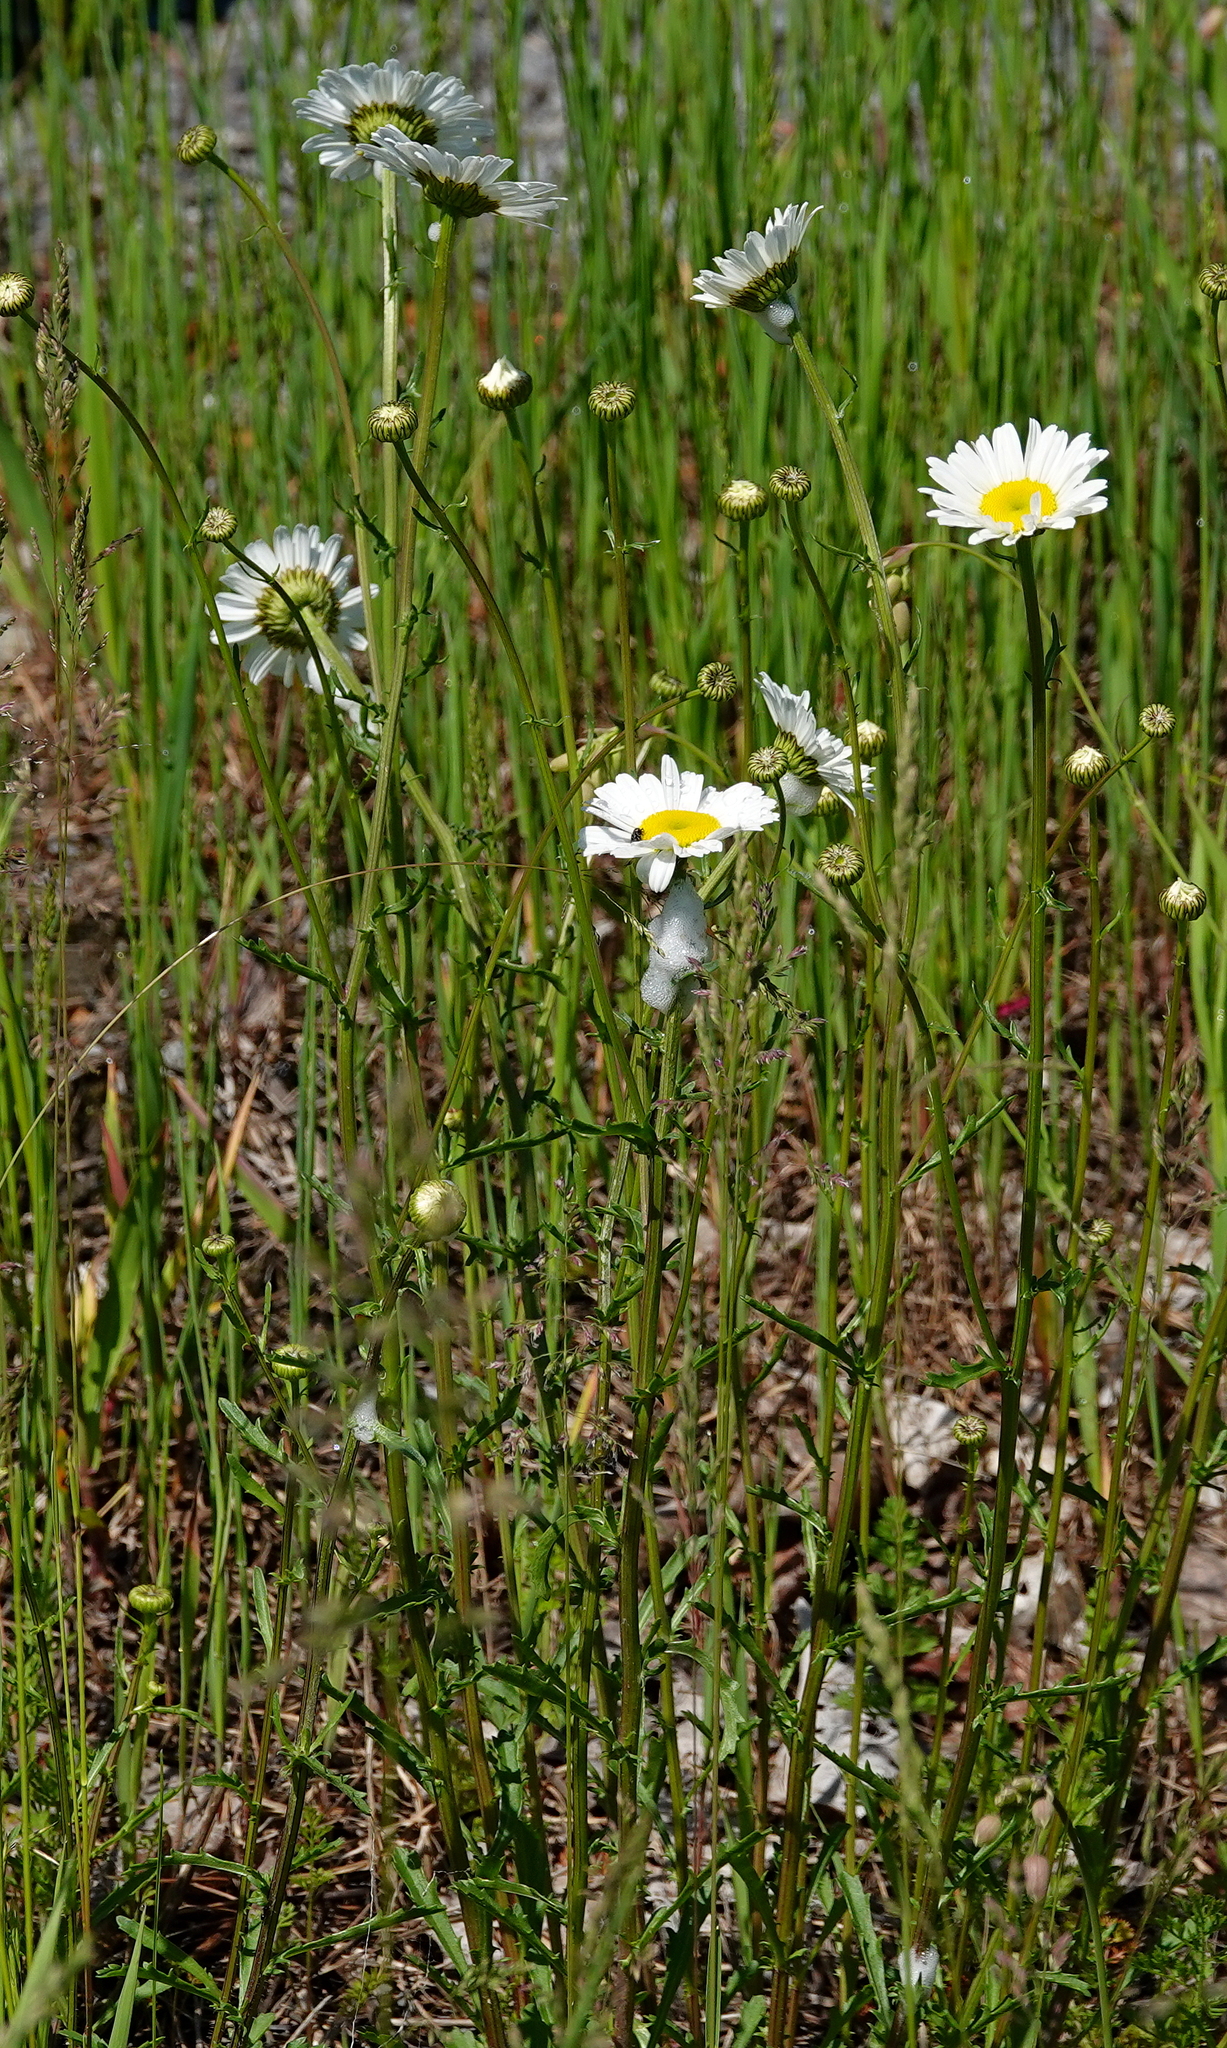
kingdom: Plantae
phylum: Tracheophyta
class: Magnoliopsida
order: Asterales
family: Asteraceae
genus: Leucanthemum
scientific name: Leucanthemum vulgare
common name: Oxeye daisy
